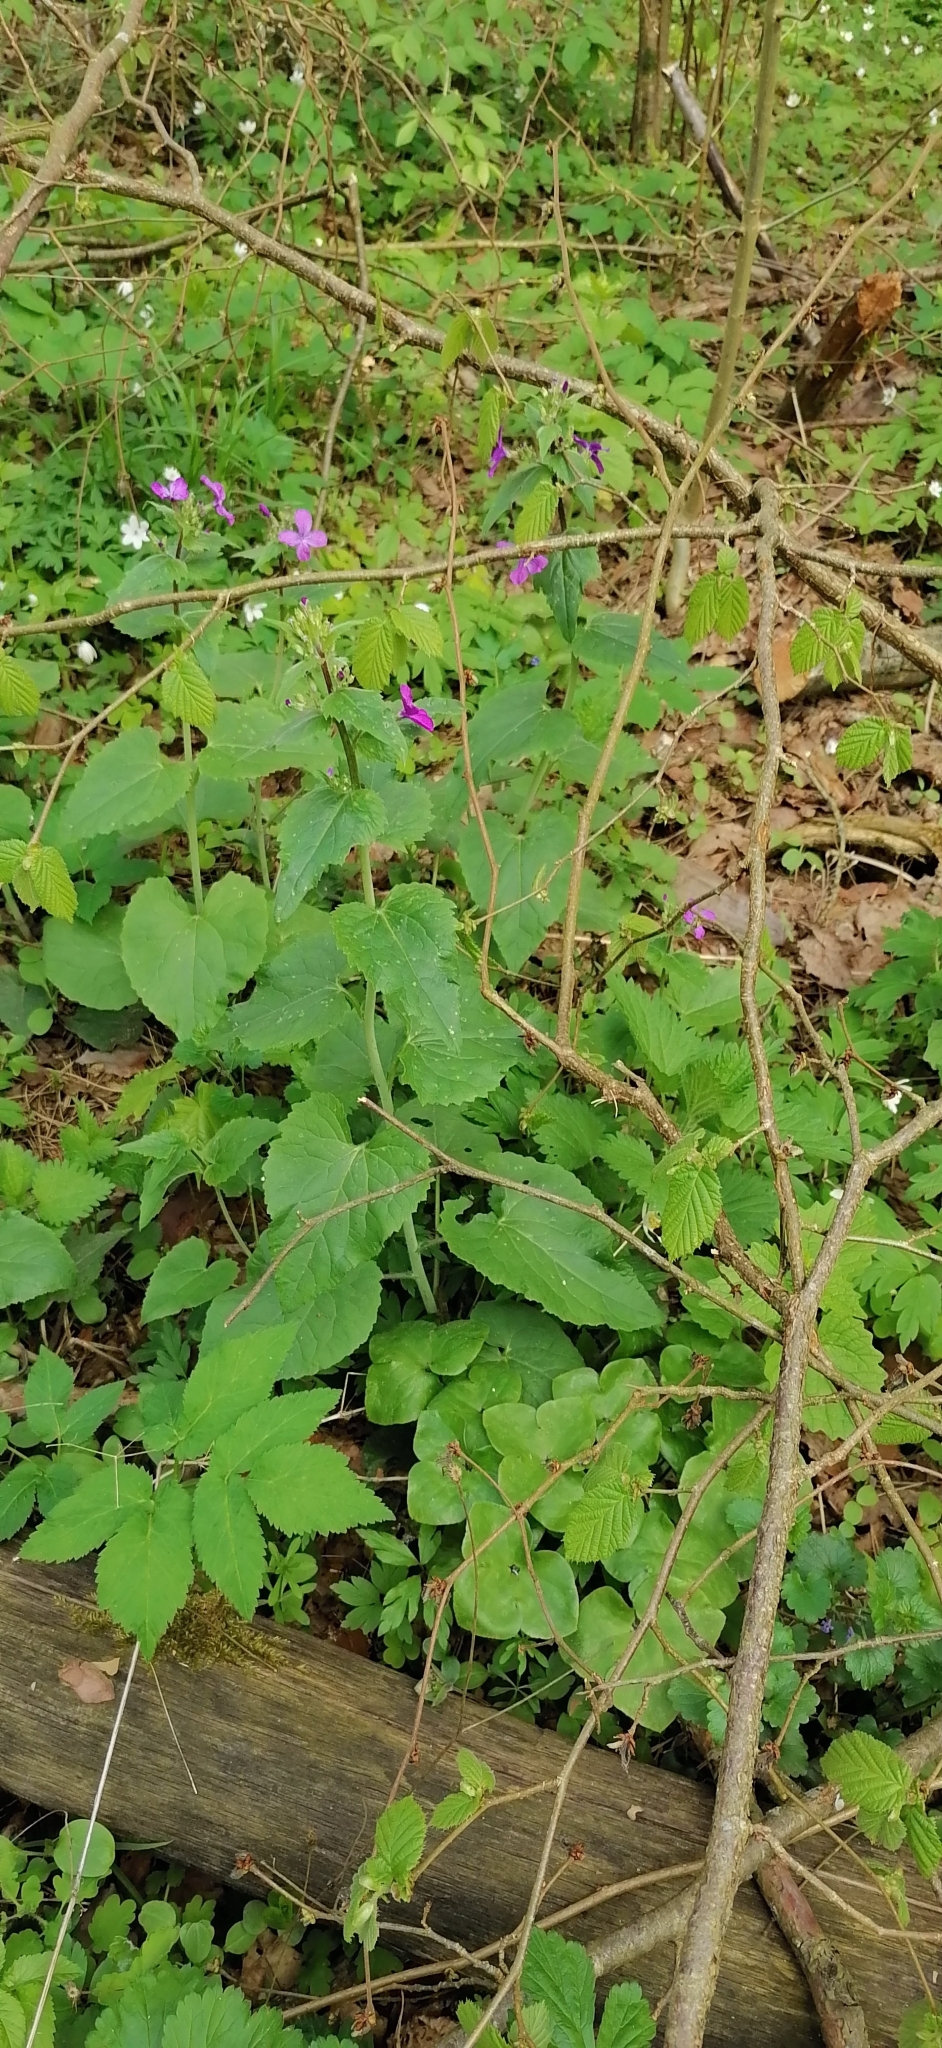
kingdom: Plantae
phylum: Tracheophyta
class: Magnoliopsida
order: Brassicales
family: Brassicaceae
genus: Lunaria
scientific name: Lunaria annua
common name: Honesty
